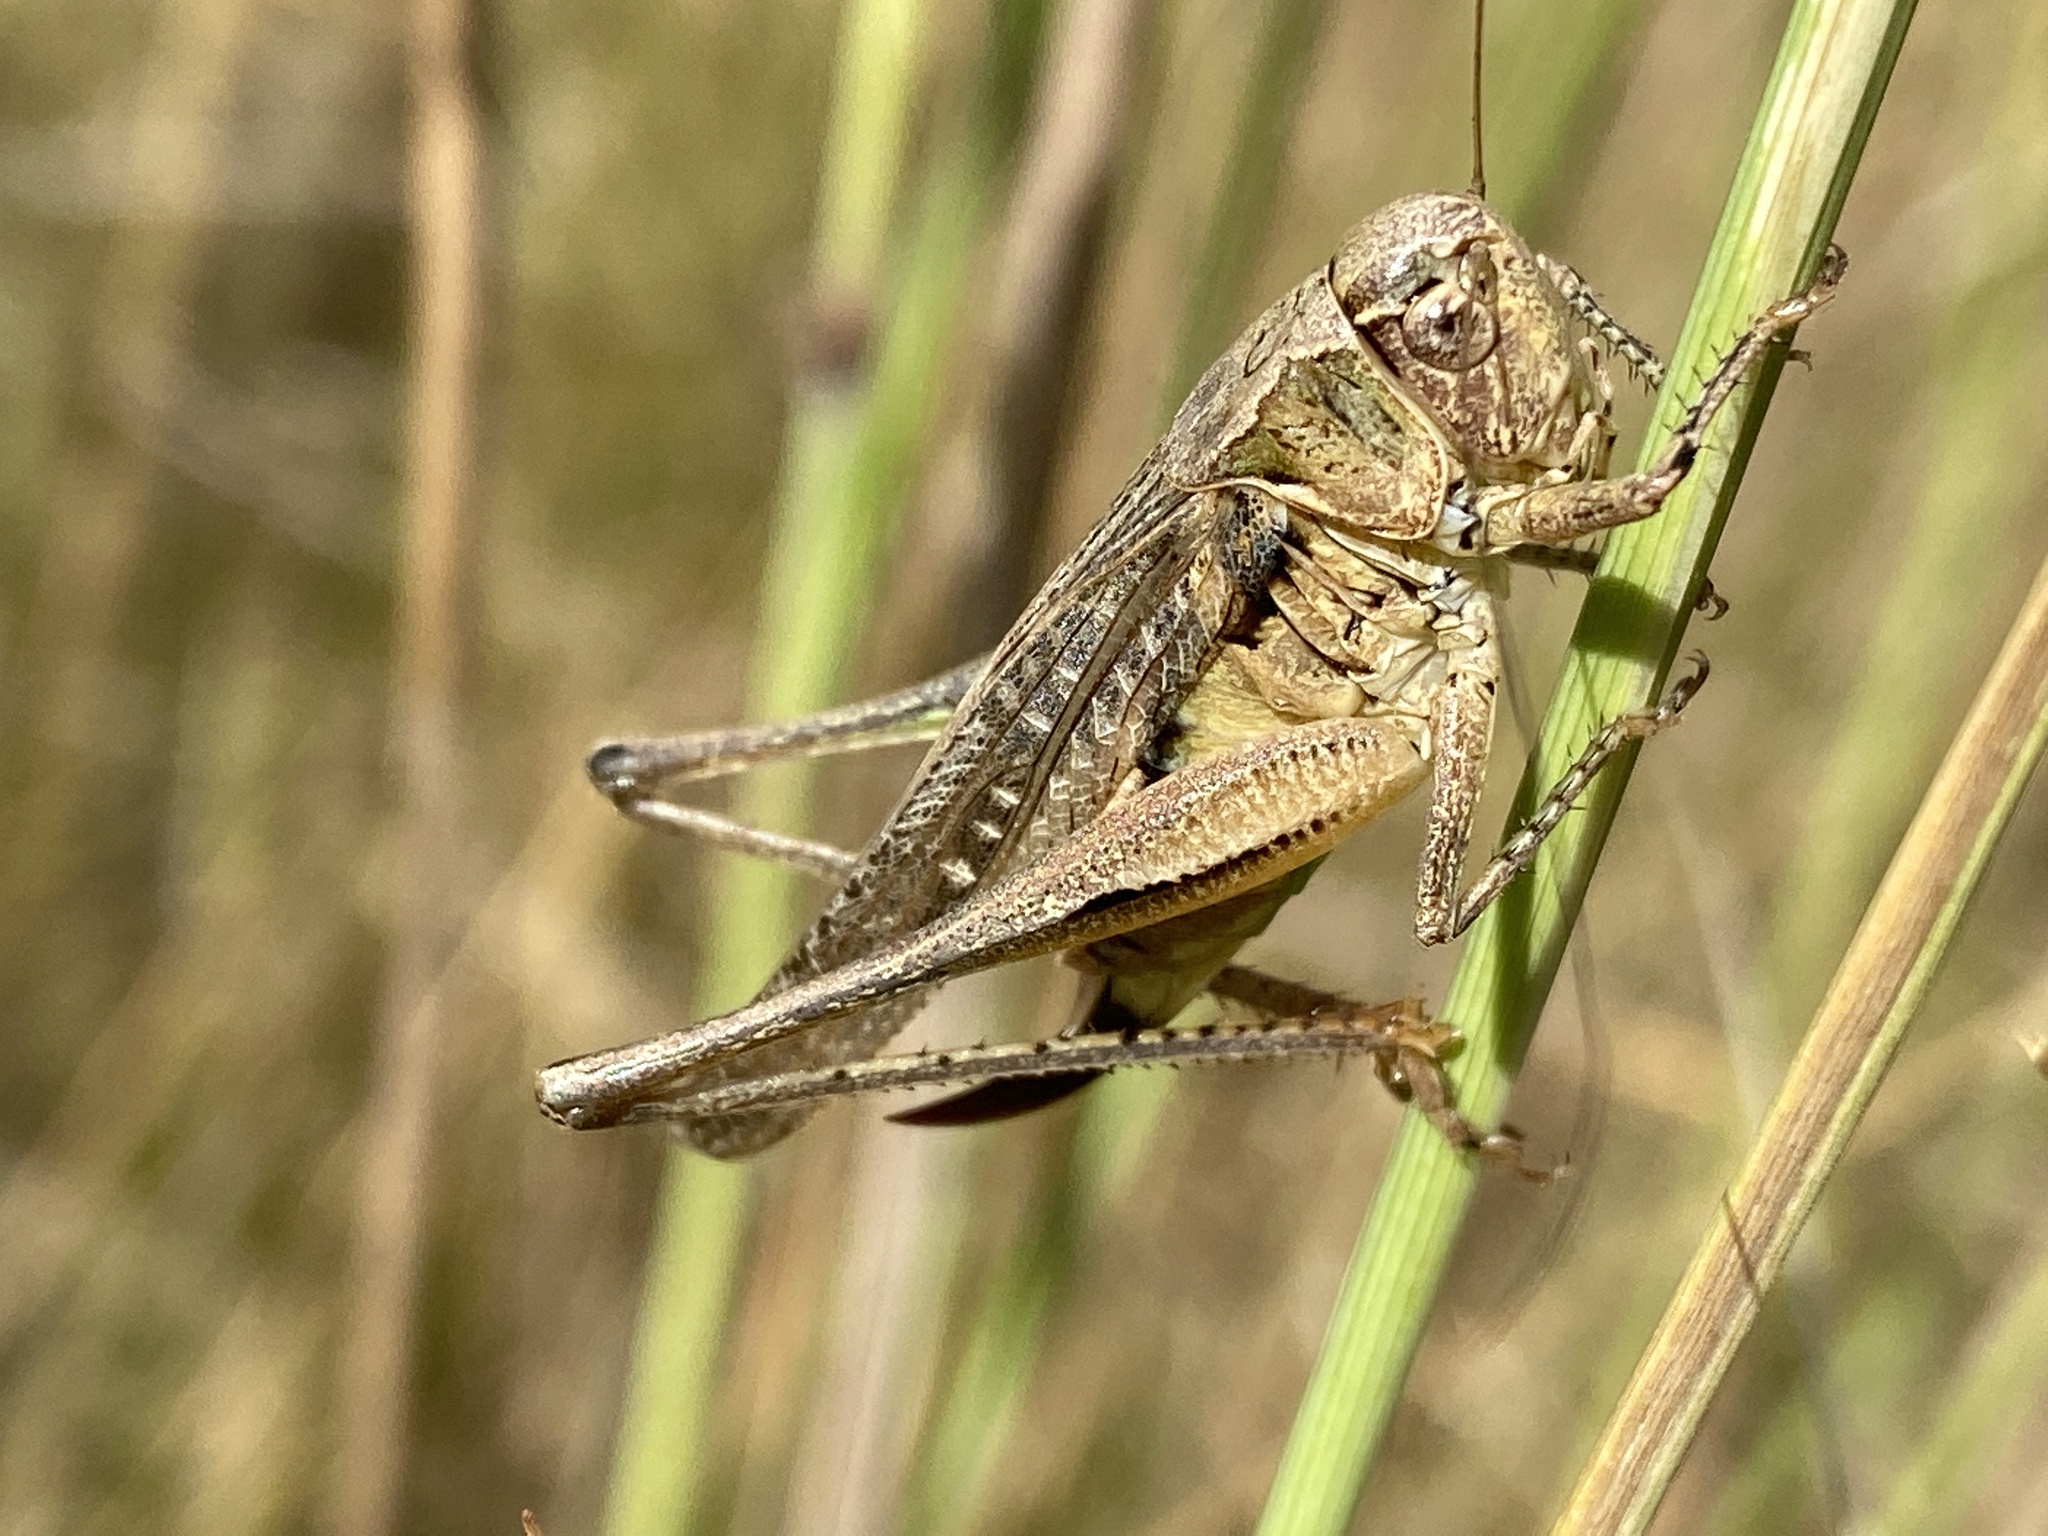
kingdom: Animalia
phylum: Arthropoda
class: Insecta
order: Orthoptera
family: Tettigoniidae
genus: Platycleis
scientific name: Platycleis albopunctata
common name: Grey bush-cricket
